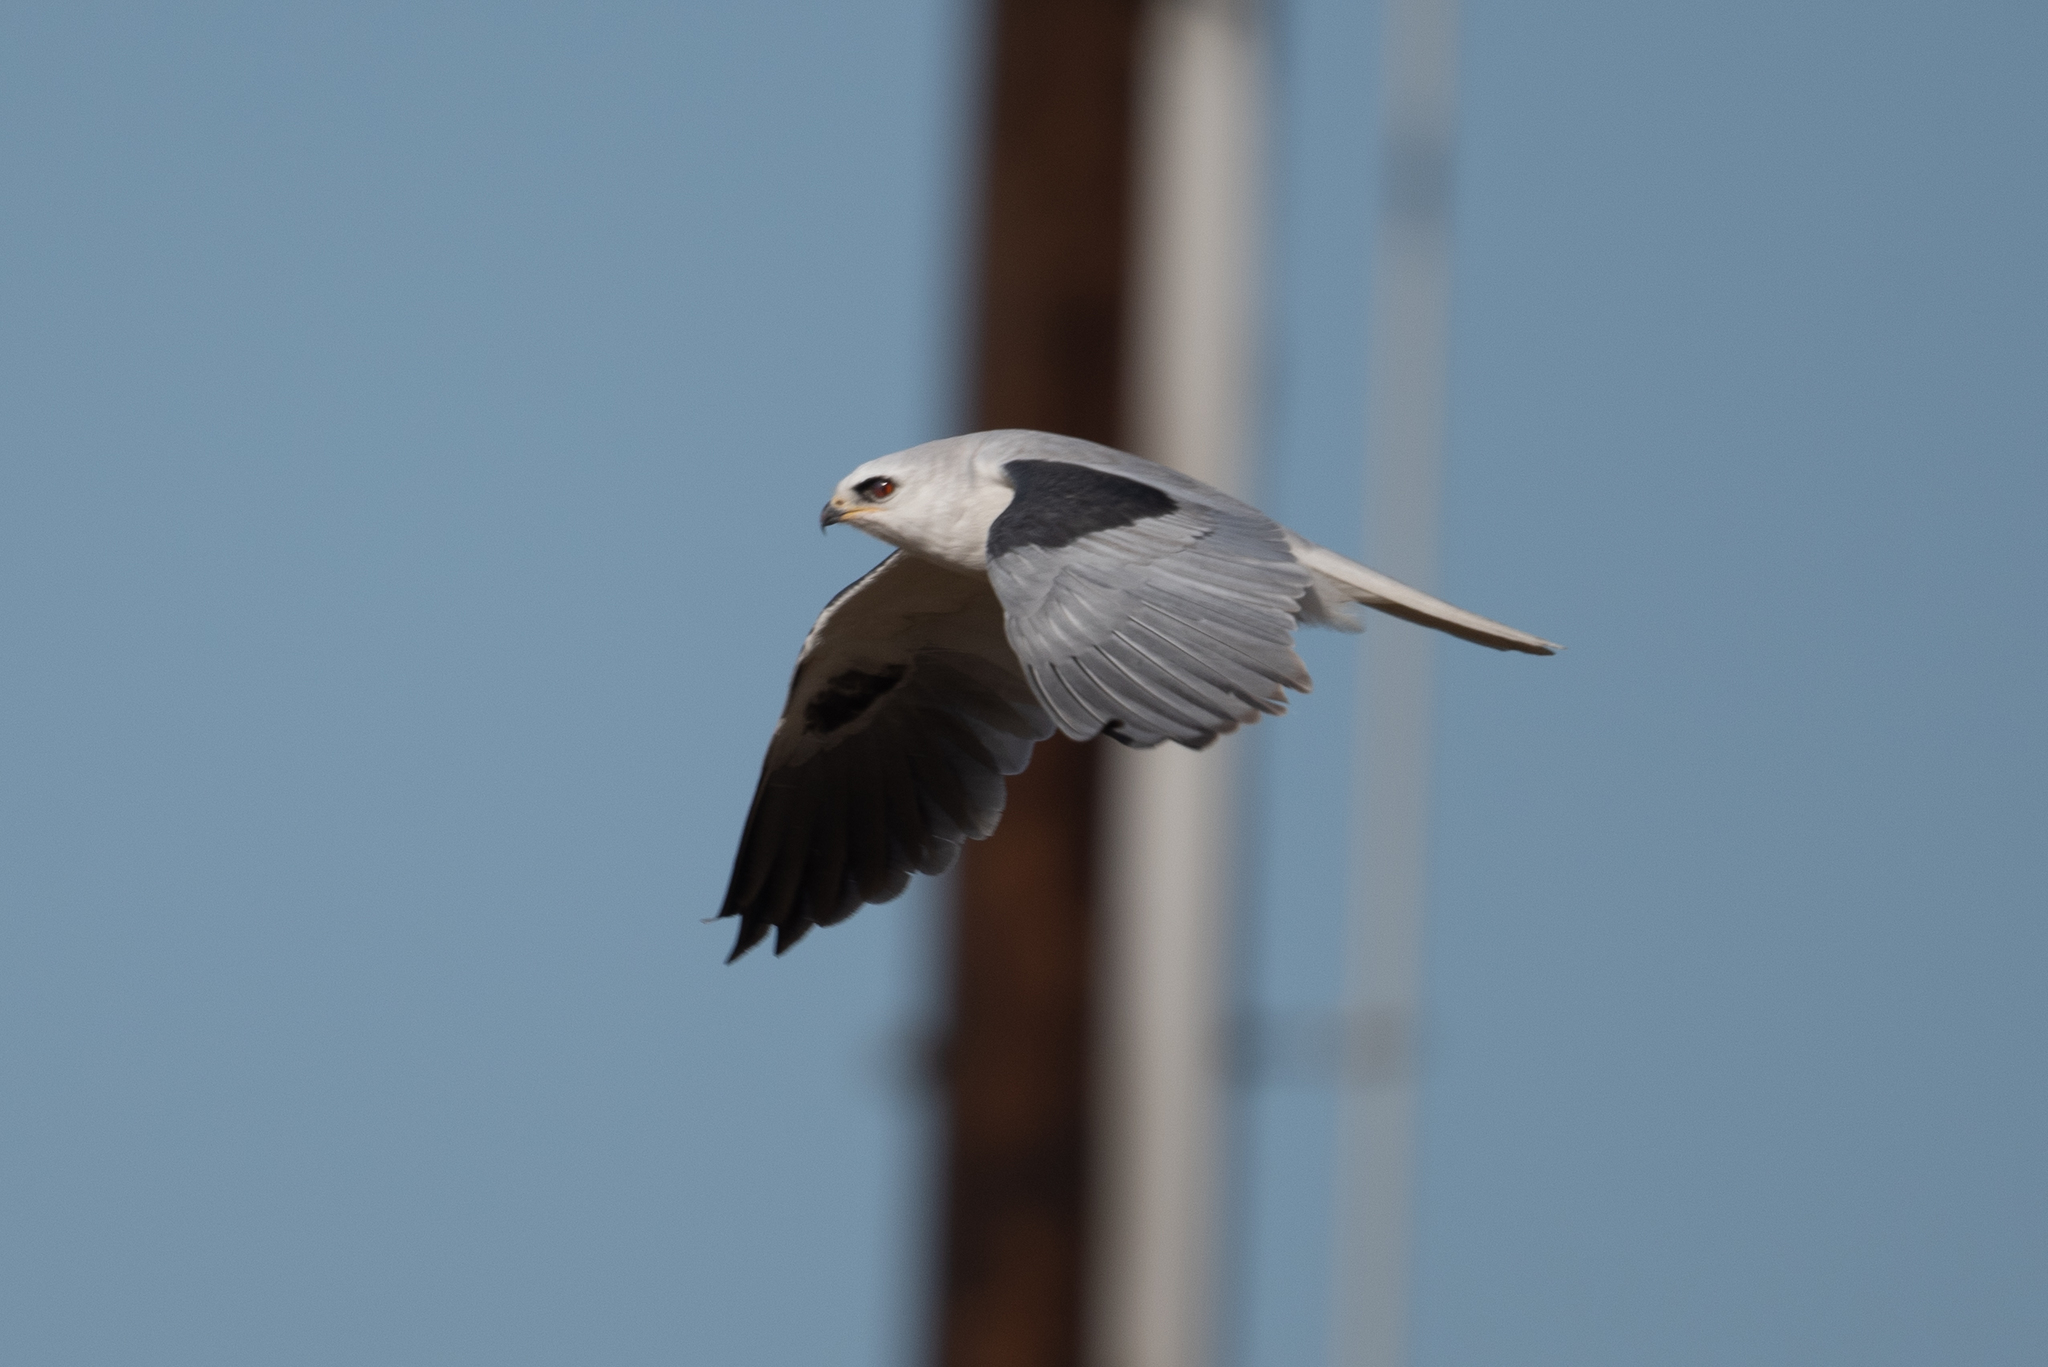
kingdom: Animalia
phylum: Chordata
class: Aves
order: Accipitriformes
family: Accipitridae
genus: Elanus
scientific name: Elanus leucurus
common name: White-tailed kite
